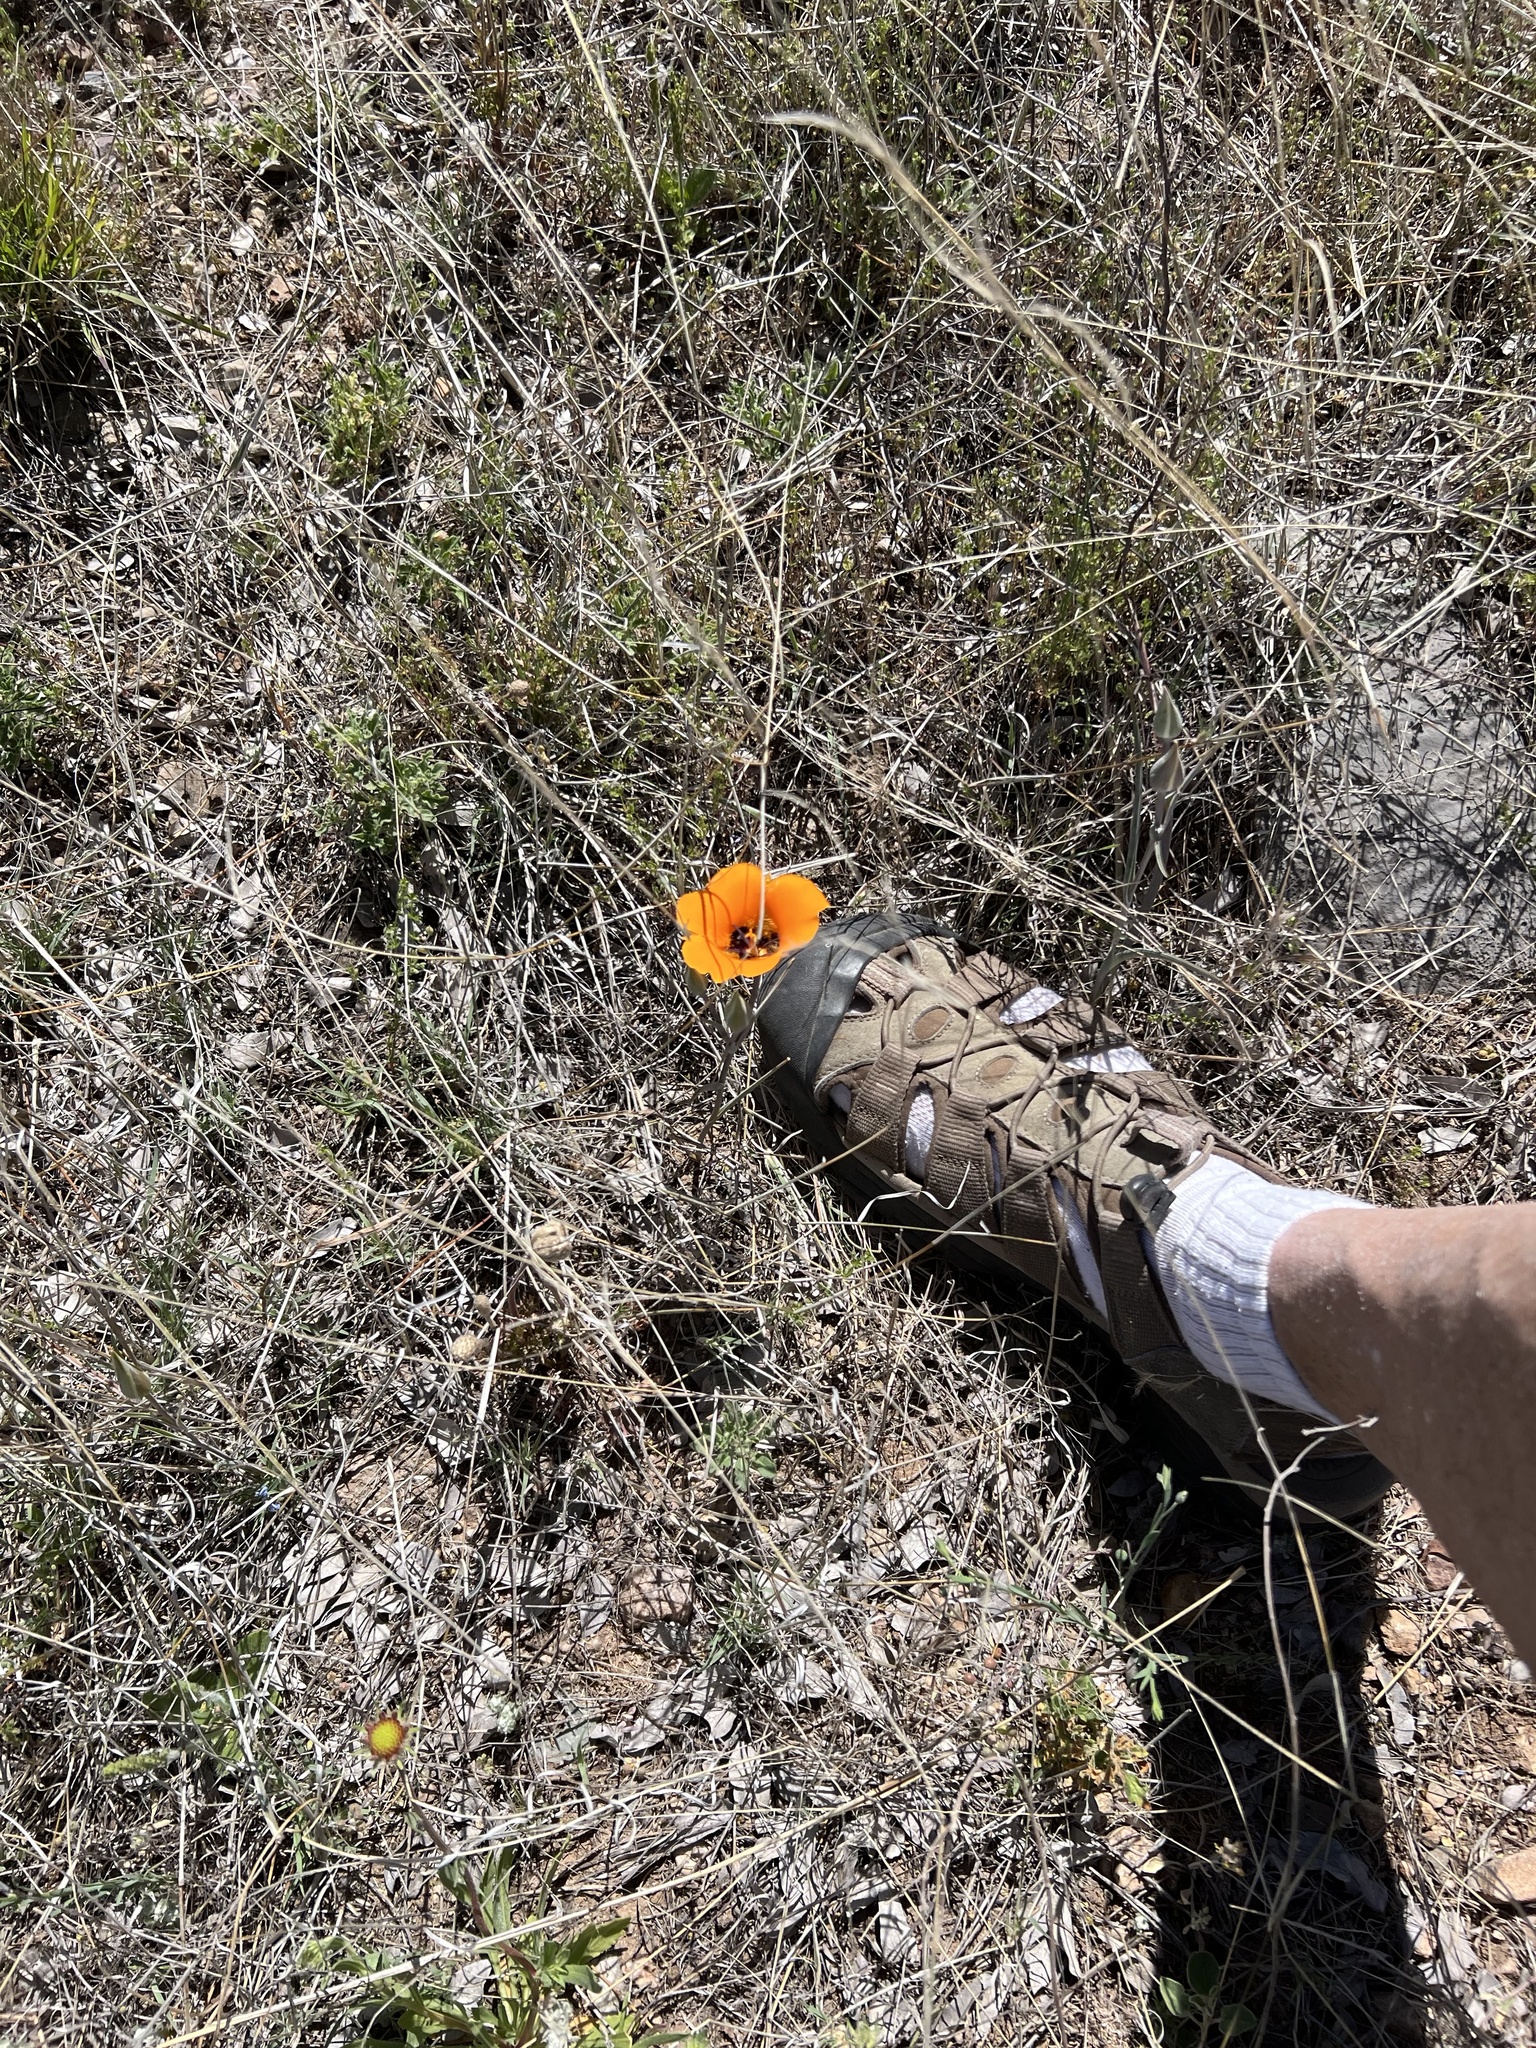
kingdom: Plantae
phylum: Tracheophyta
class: Liliopsida
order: Liliales
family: Liliaceae
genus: Calochortus
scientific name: Calochortus kennedyi
